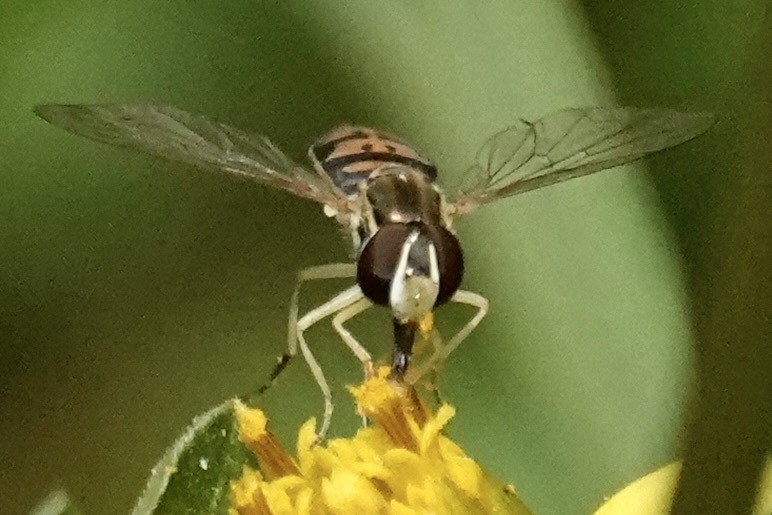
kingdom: Animalia
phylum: Arthropoda
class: Insecta
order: Diptera
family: Syrphidae
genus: Toxomerus
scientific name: Toxomerus marginatus
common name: Syrphid fly
